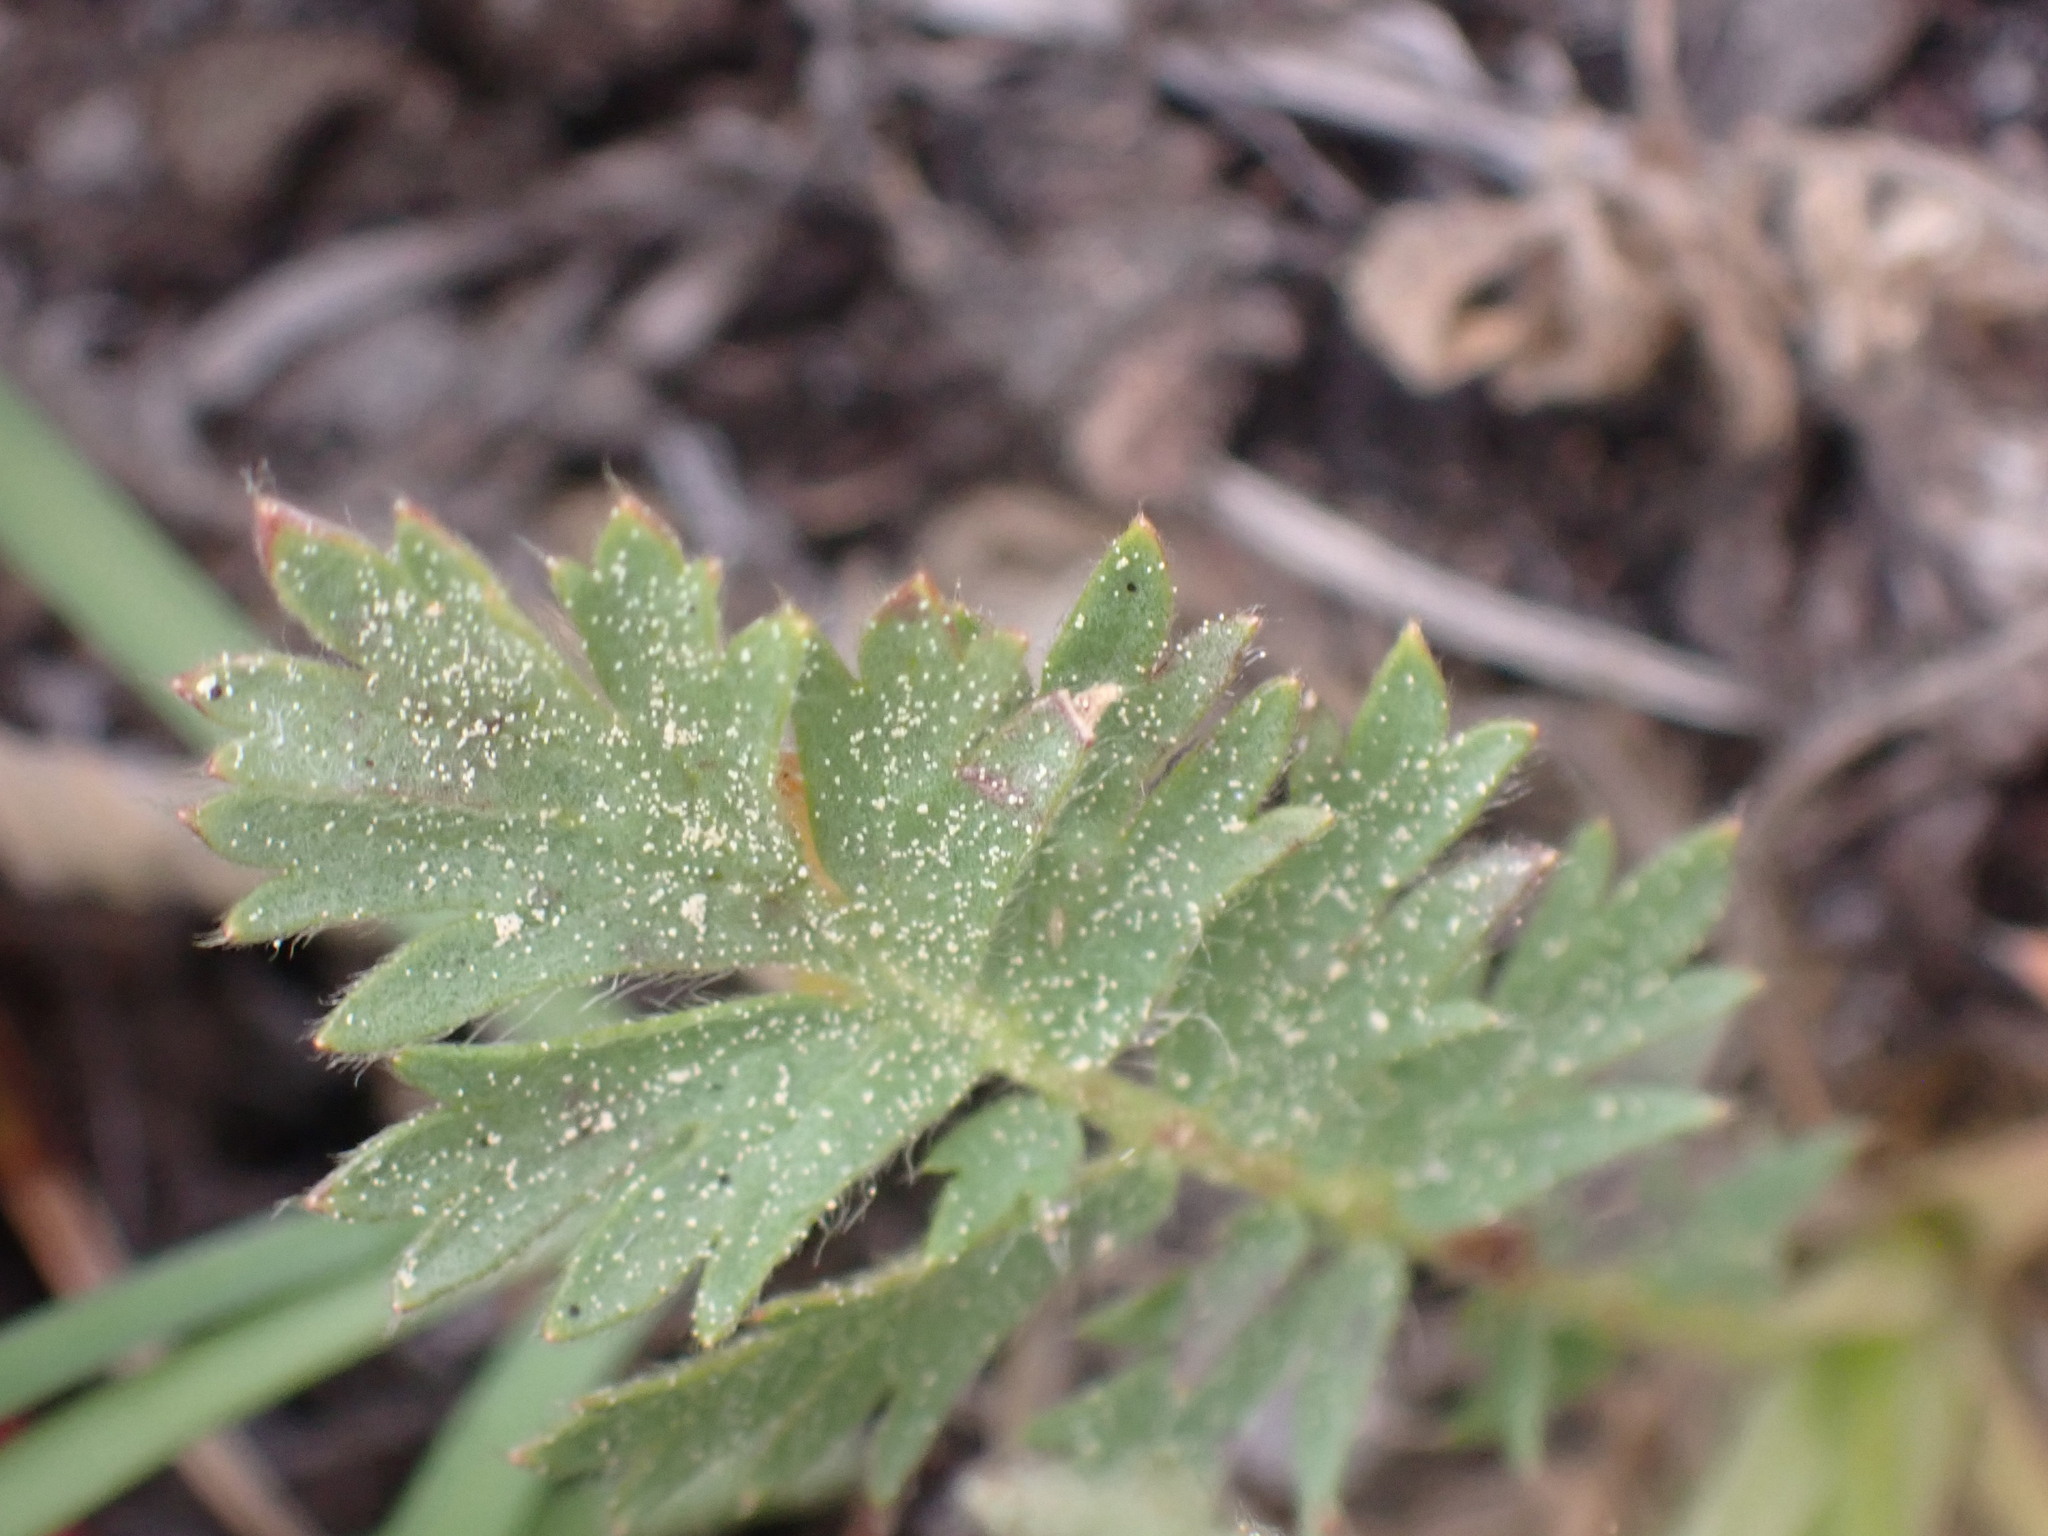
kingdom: Plantae
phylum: Tracheophyta
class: Magnoliopsida
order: Rosales
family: Rosaceae
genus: Geum
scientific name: Geum triflorum
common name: Old man's whiskers
